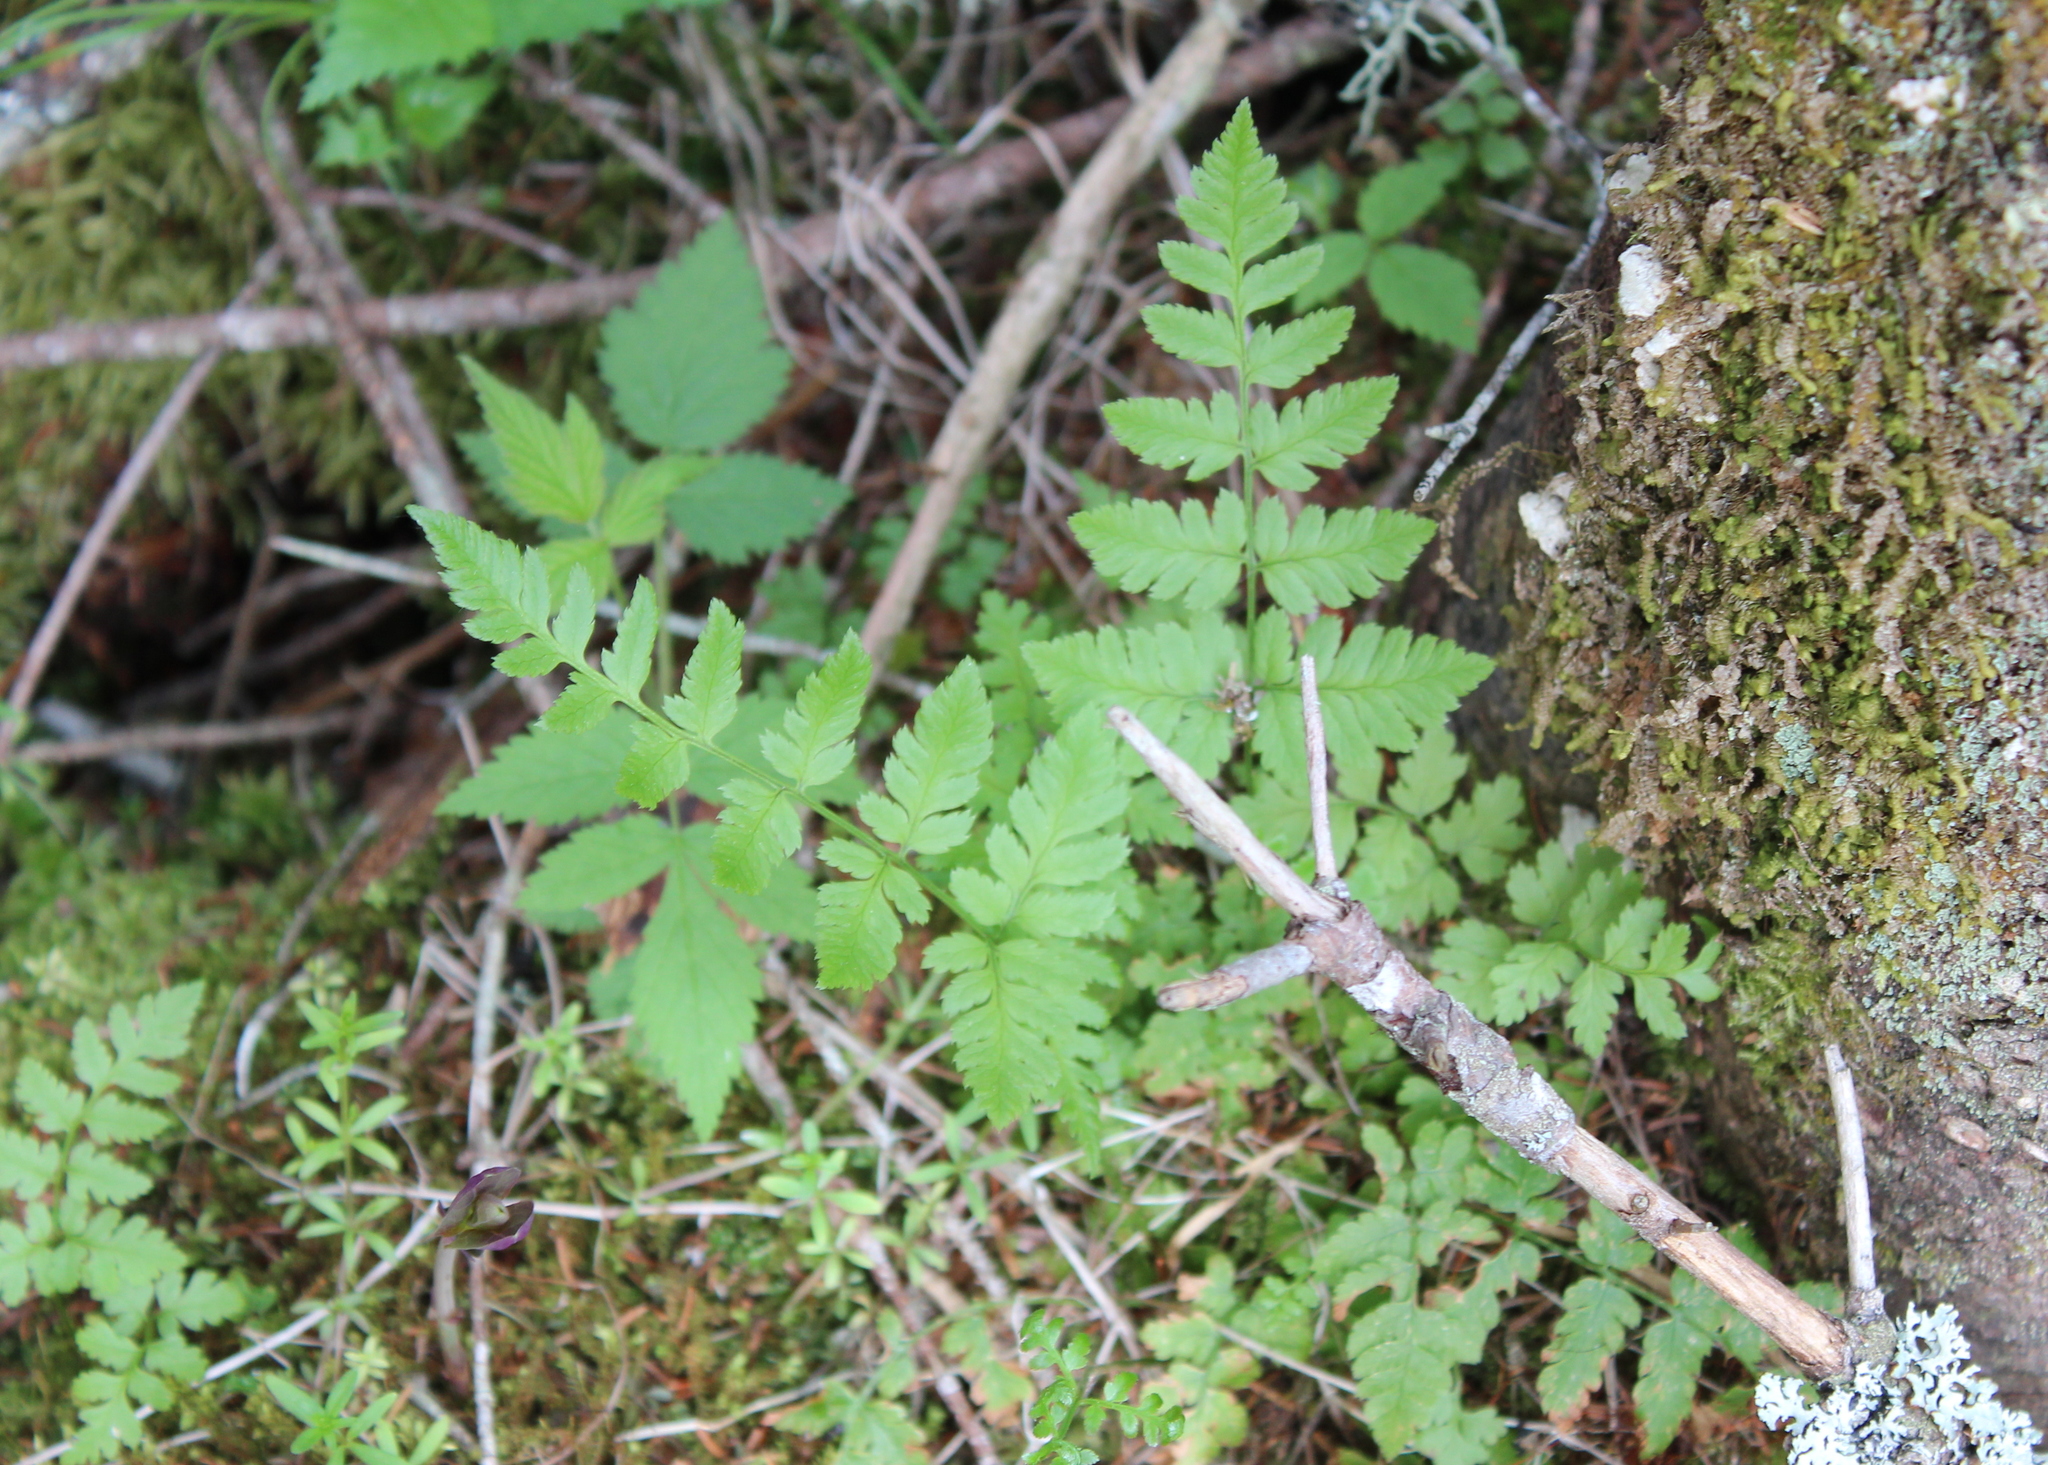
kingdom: Plantae
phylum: Tracheophyta
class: Polypodiopsida
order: Polypodiales
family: Dryopteridaceae
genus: Dryopteris
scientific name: Dryopteris cristata
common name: Crested wood fern
